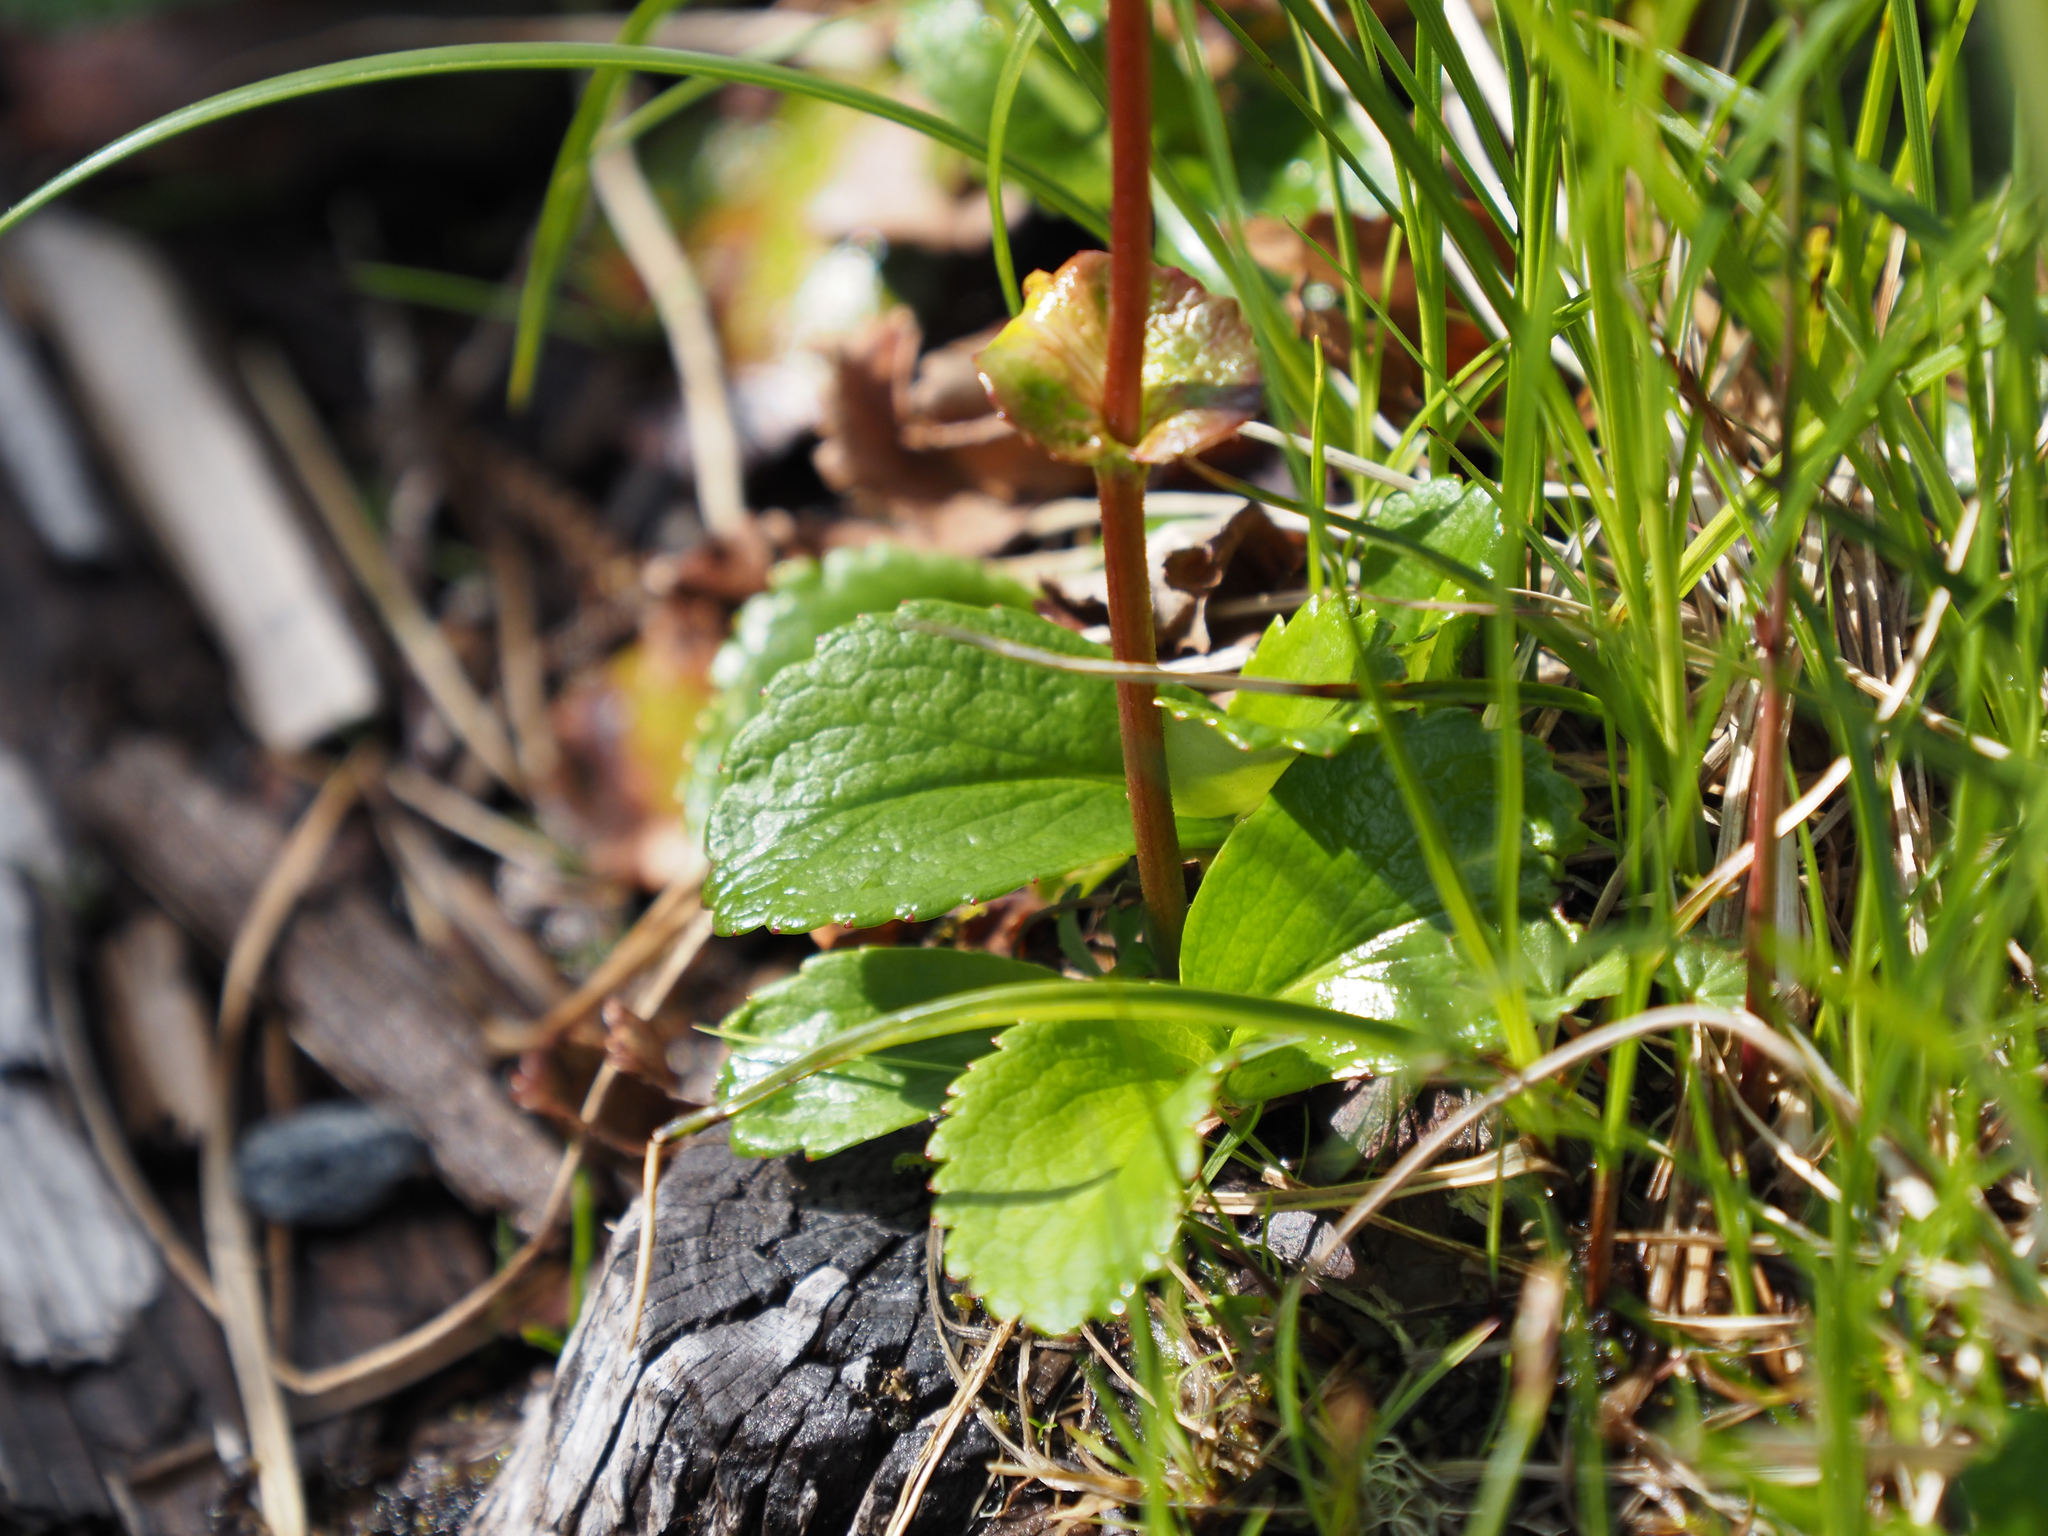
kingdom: Plantae
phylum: Tracheophyta
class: Magnoliopsida
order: Saxifragales
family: Saxifragaceae
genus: Leptarrhena
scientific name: Leptarrhena pyrolifolia
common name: Leatherleaf-saxifrage
